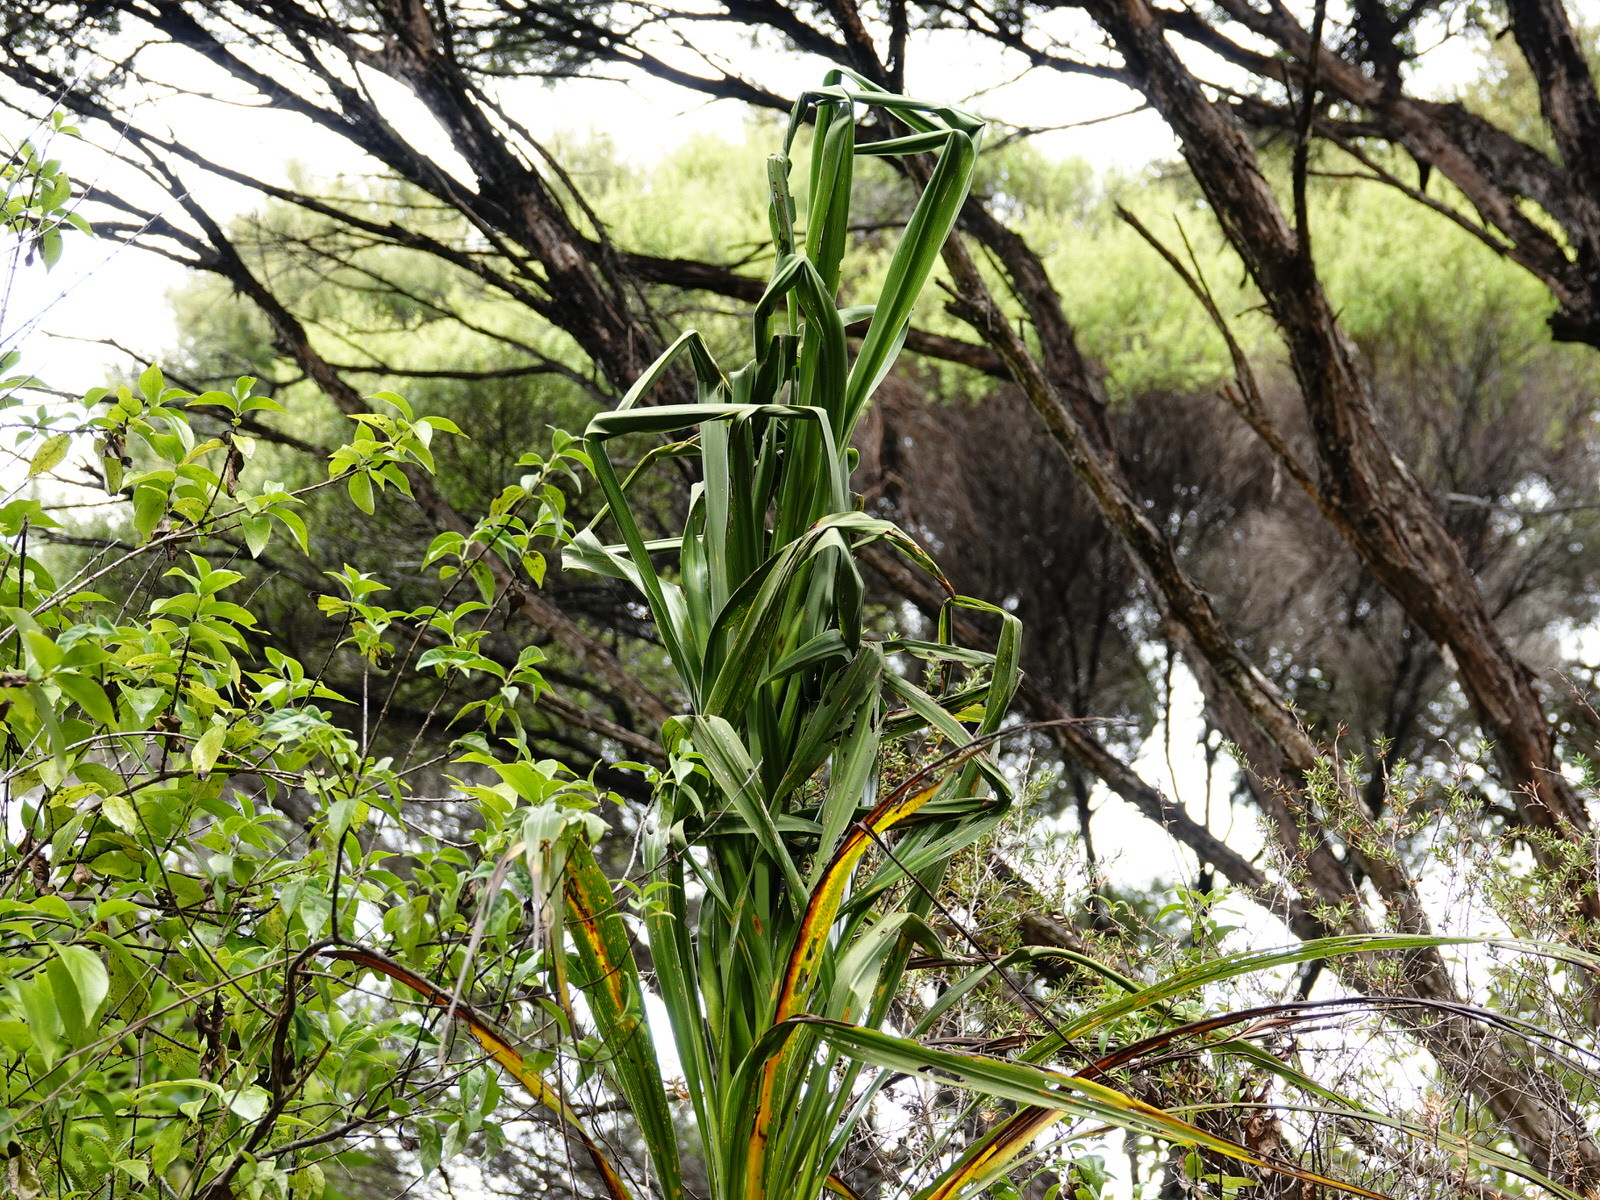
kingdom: Plantae
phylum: Tracheophyta
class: Liliopsida
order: Asparagales
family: Asparagaceae
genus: Cordyline
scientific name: Cordyline banksii
